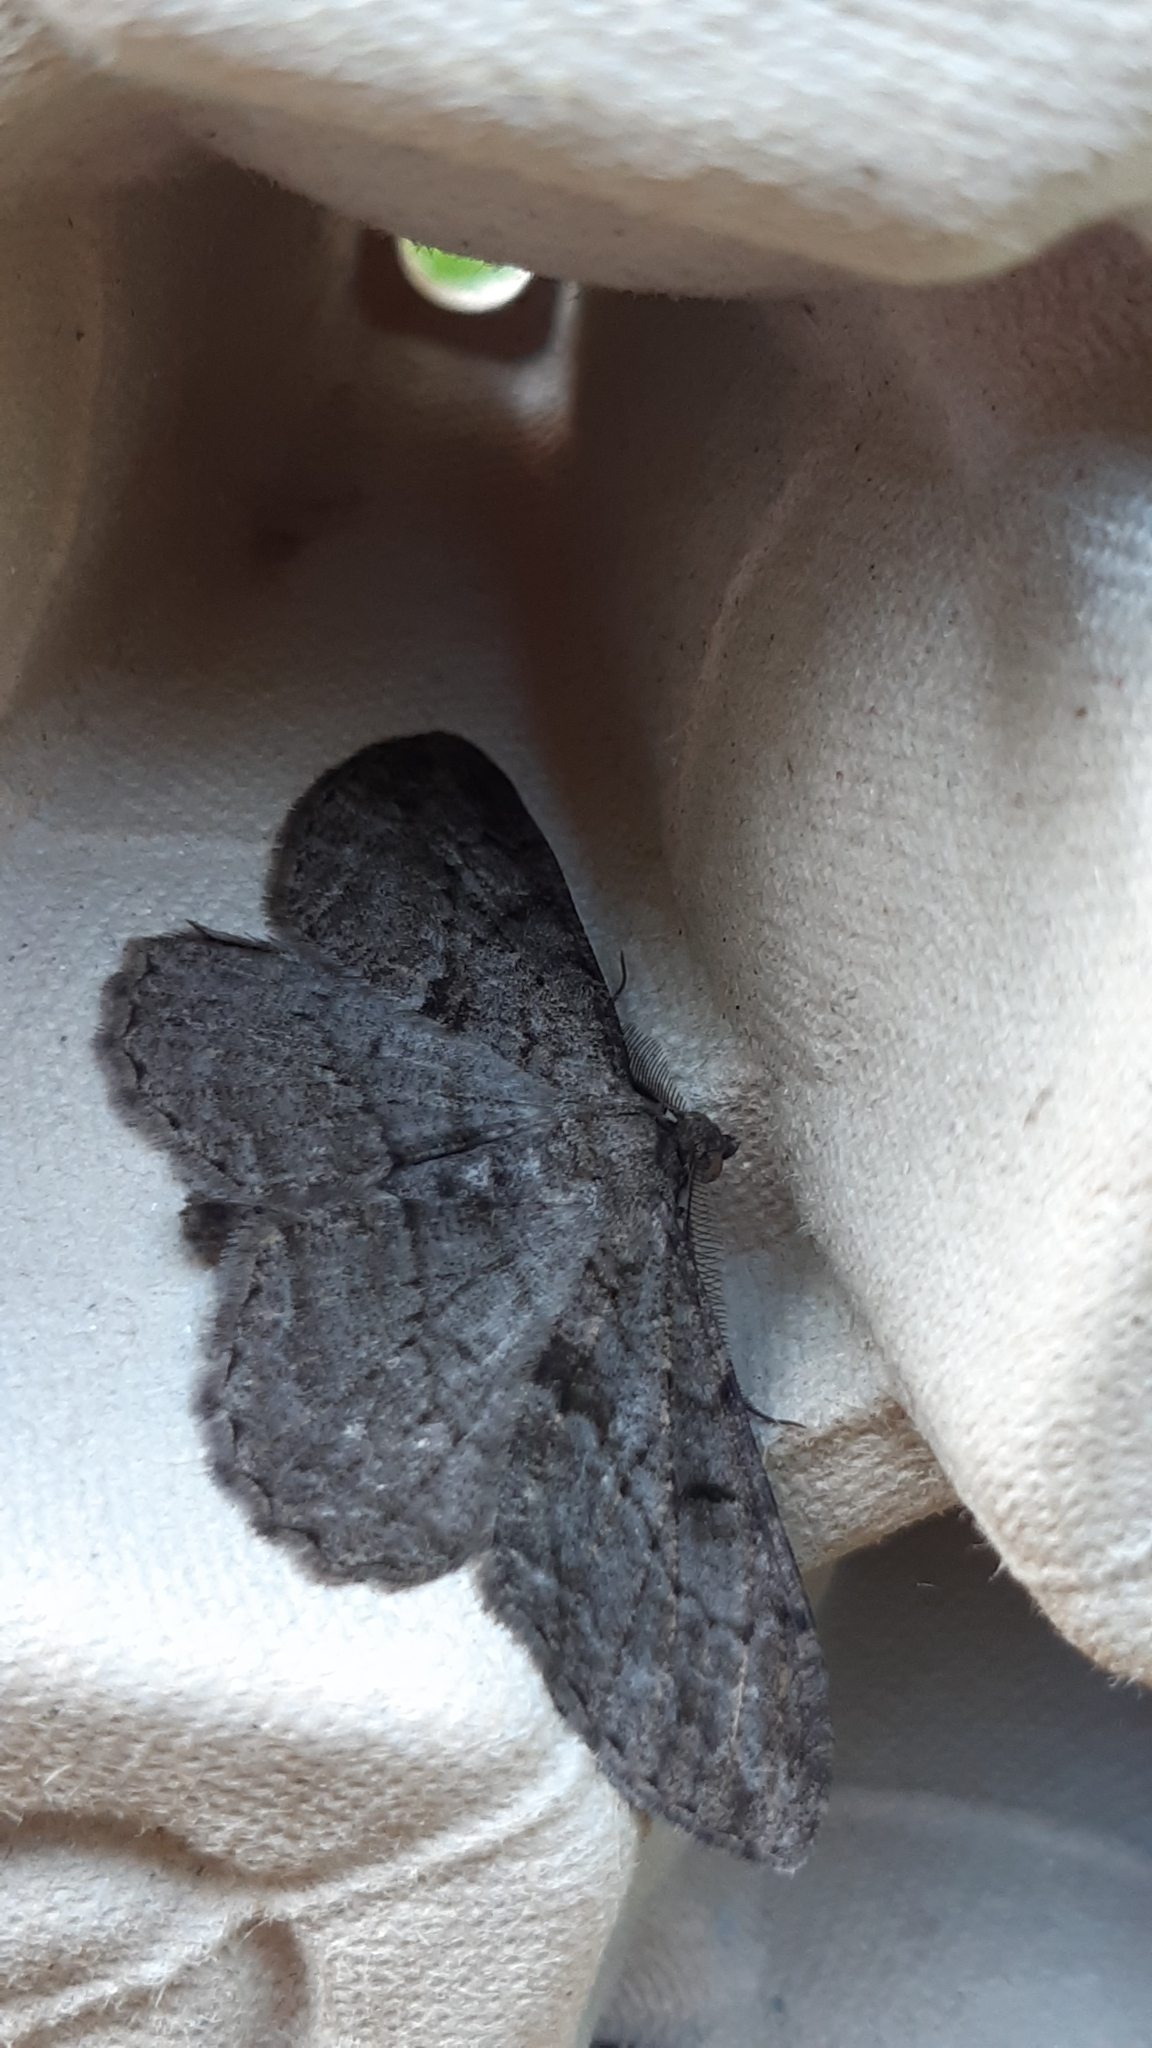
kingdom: Animalia
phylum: Arthropoda
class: Insecta
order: Lepidoptera
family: Geometridae
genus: Peribatodes
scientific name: Peribatodes rhomboidaria
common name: Willow beauty
